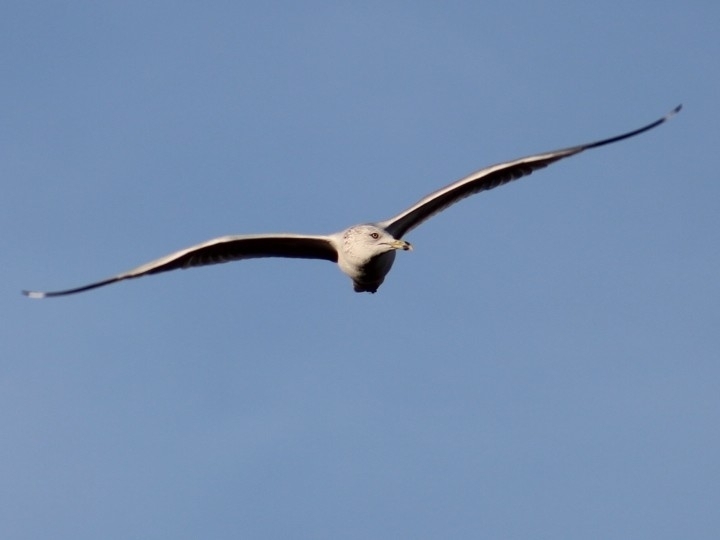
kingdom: Animalia
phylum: Chordata
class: Aves
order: Charadriiformes
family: Laridae
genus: Larus
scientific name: Larus delawarensis
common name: Ring-billed gull
